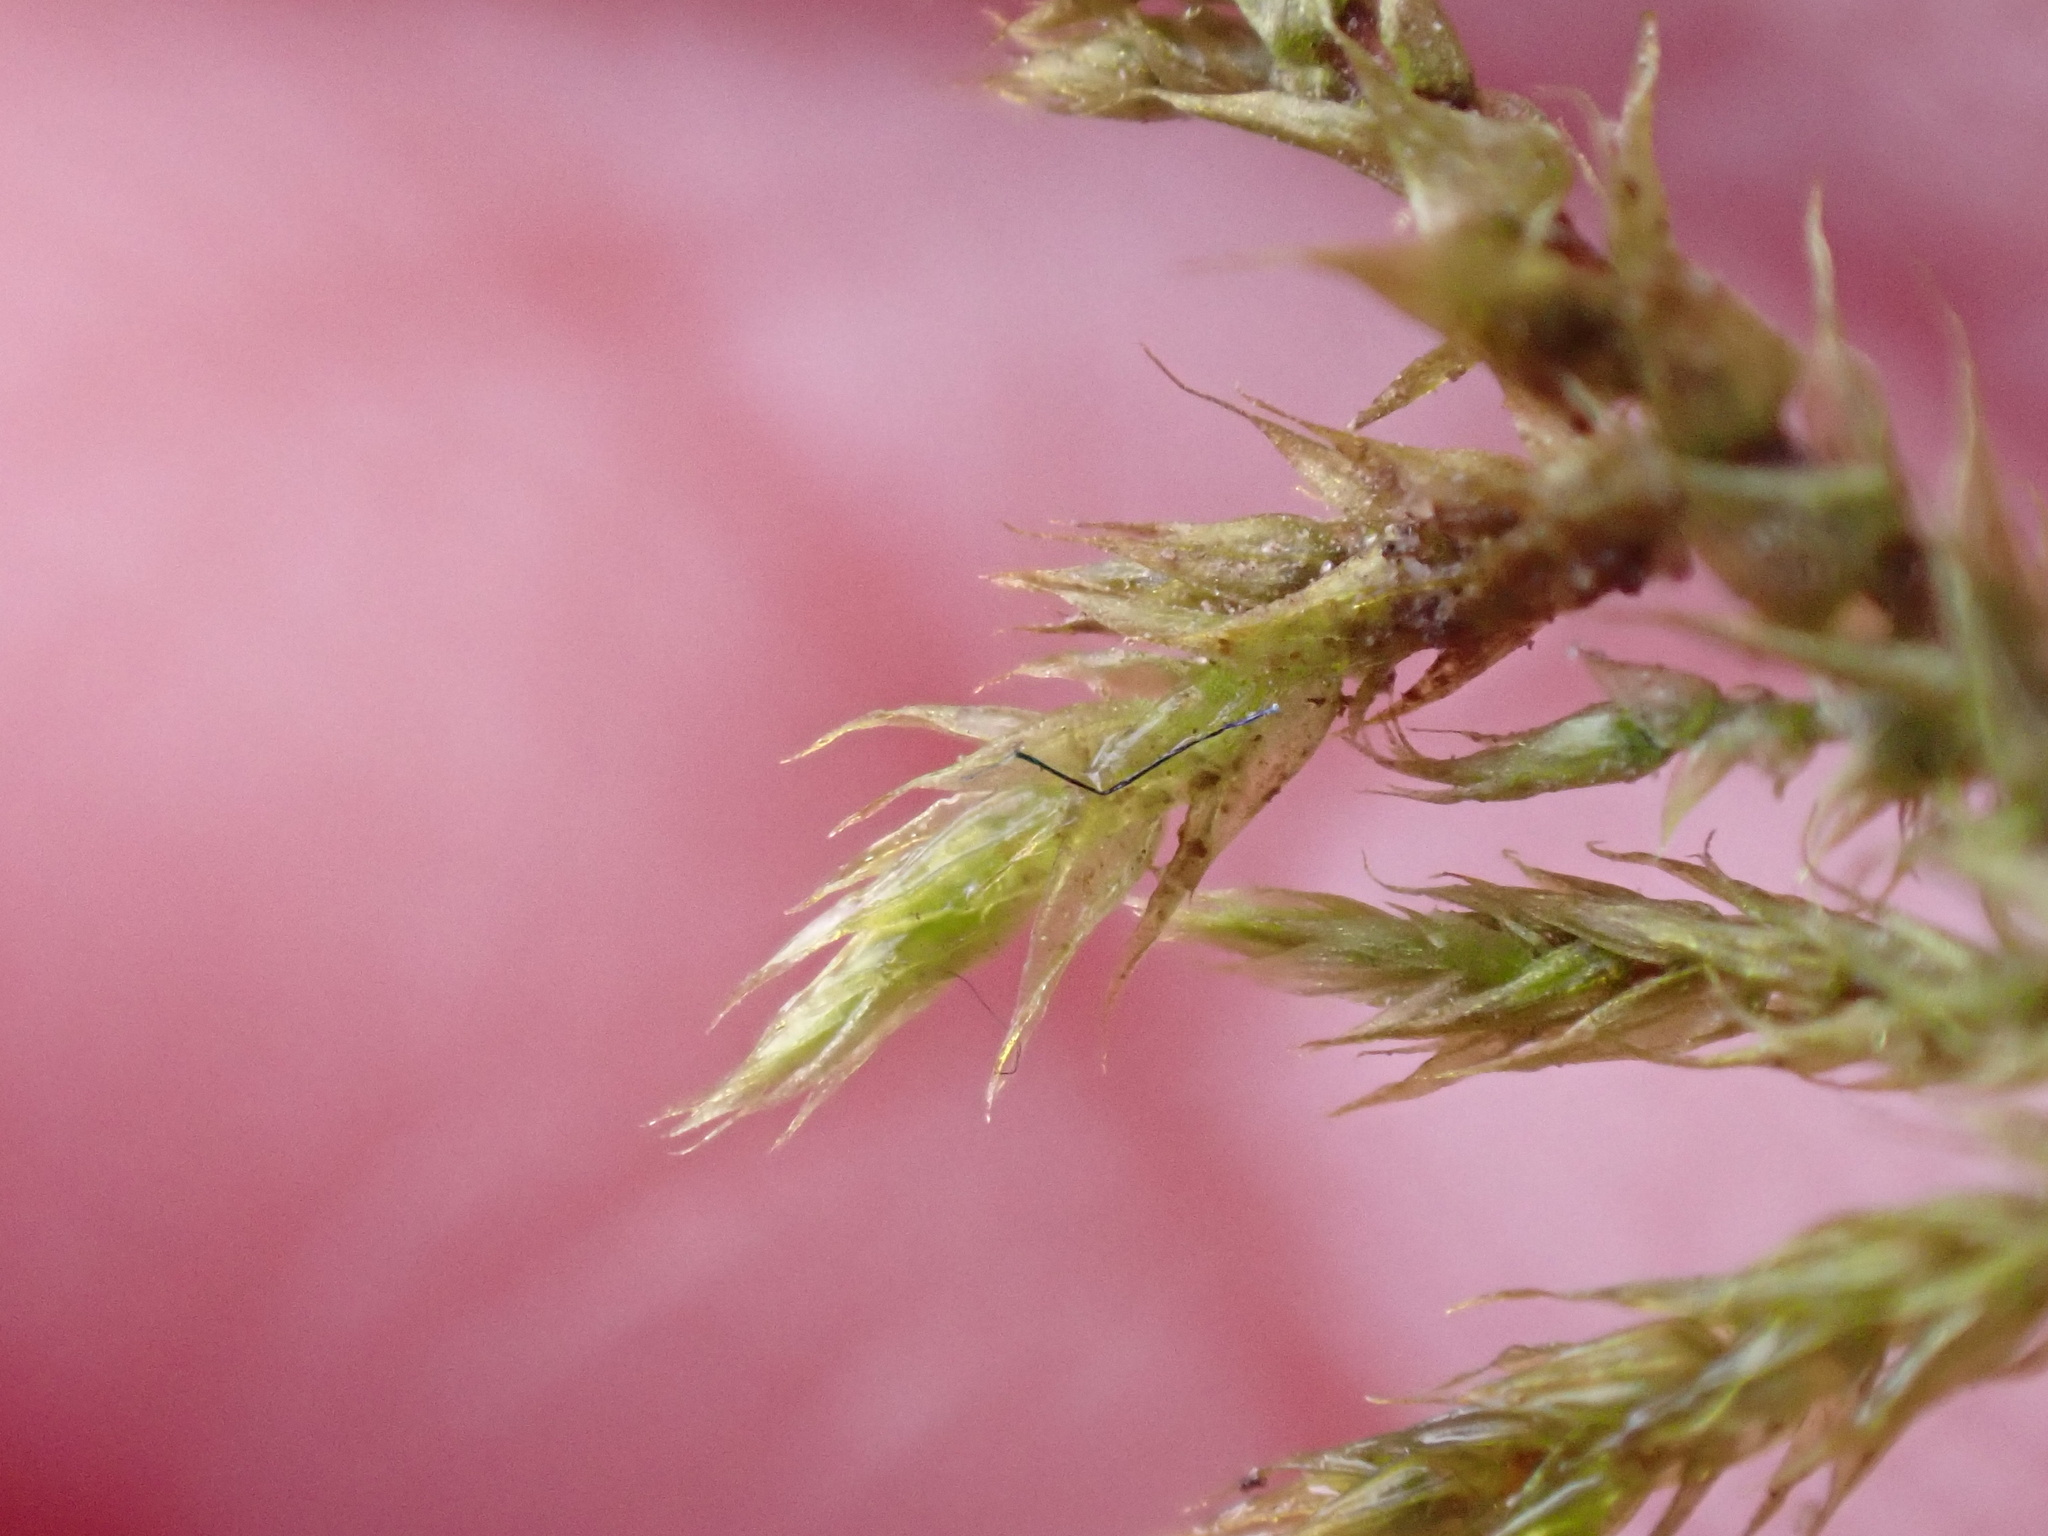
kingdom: Plantae
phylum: Bryophyta
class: Bryopsida
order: Hypnales
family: Brachytheciaceae
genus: Sciuro-hypnum
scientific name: Sciuro-hypnum populeum
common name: Matted feather-moss
